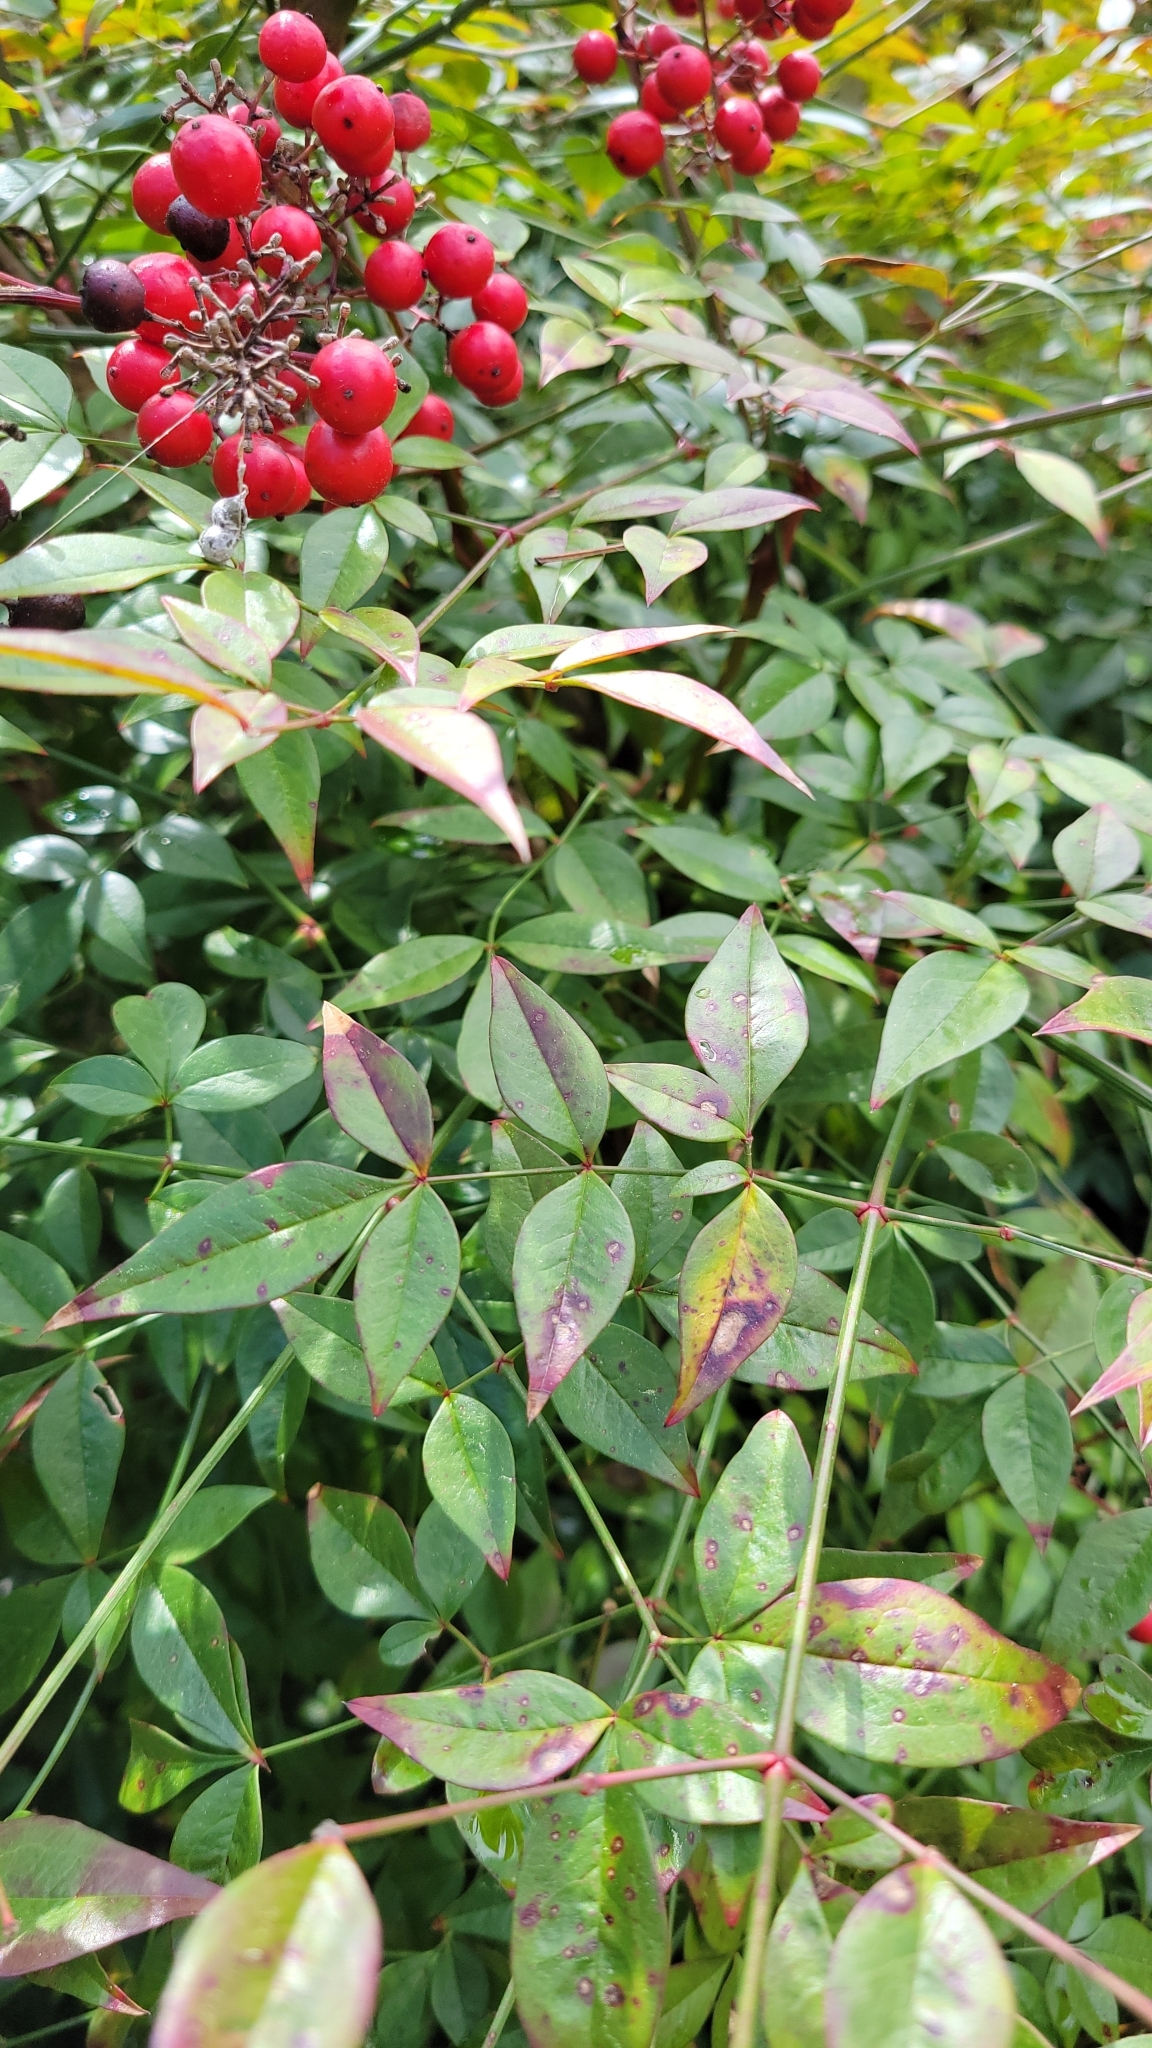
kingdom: Plantae
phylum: Tracheophyta
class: Magnoliopsida
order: Ranunculales
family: Berberidaceae
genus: Nandina
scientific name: Nandina domestica
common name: Sacred bamboo
